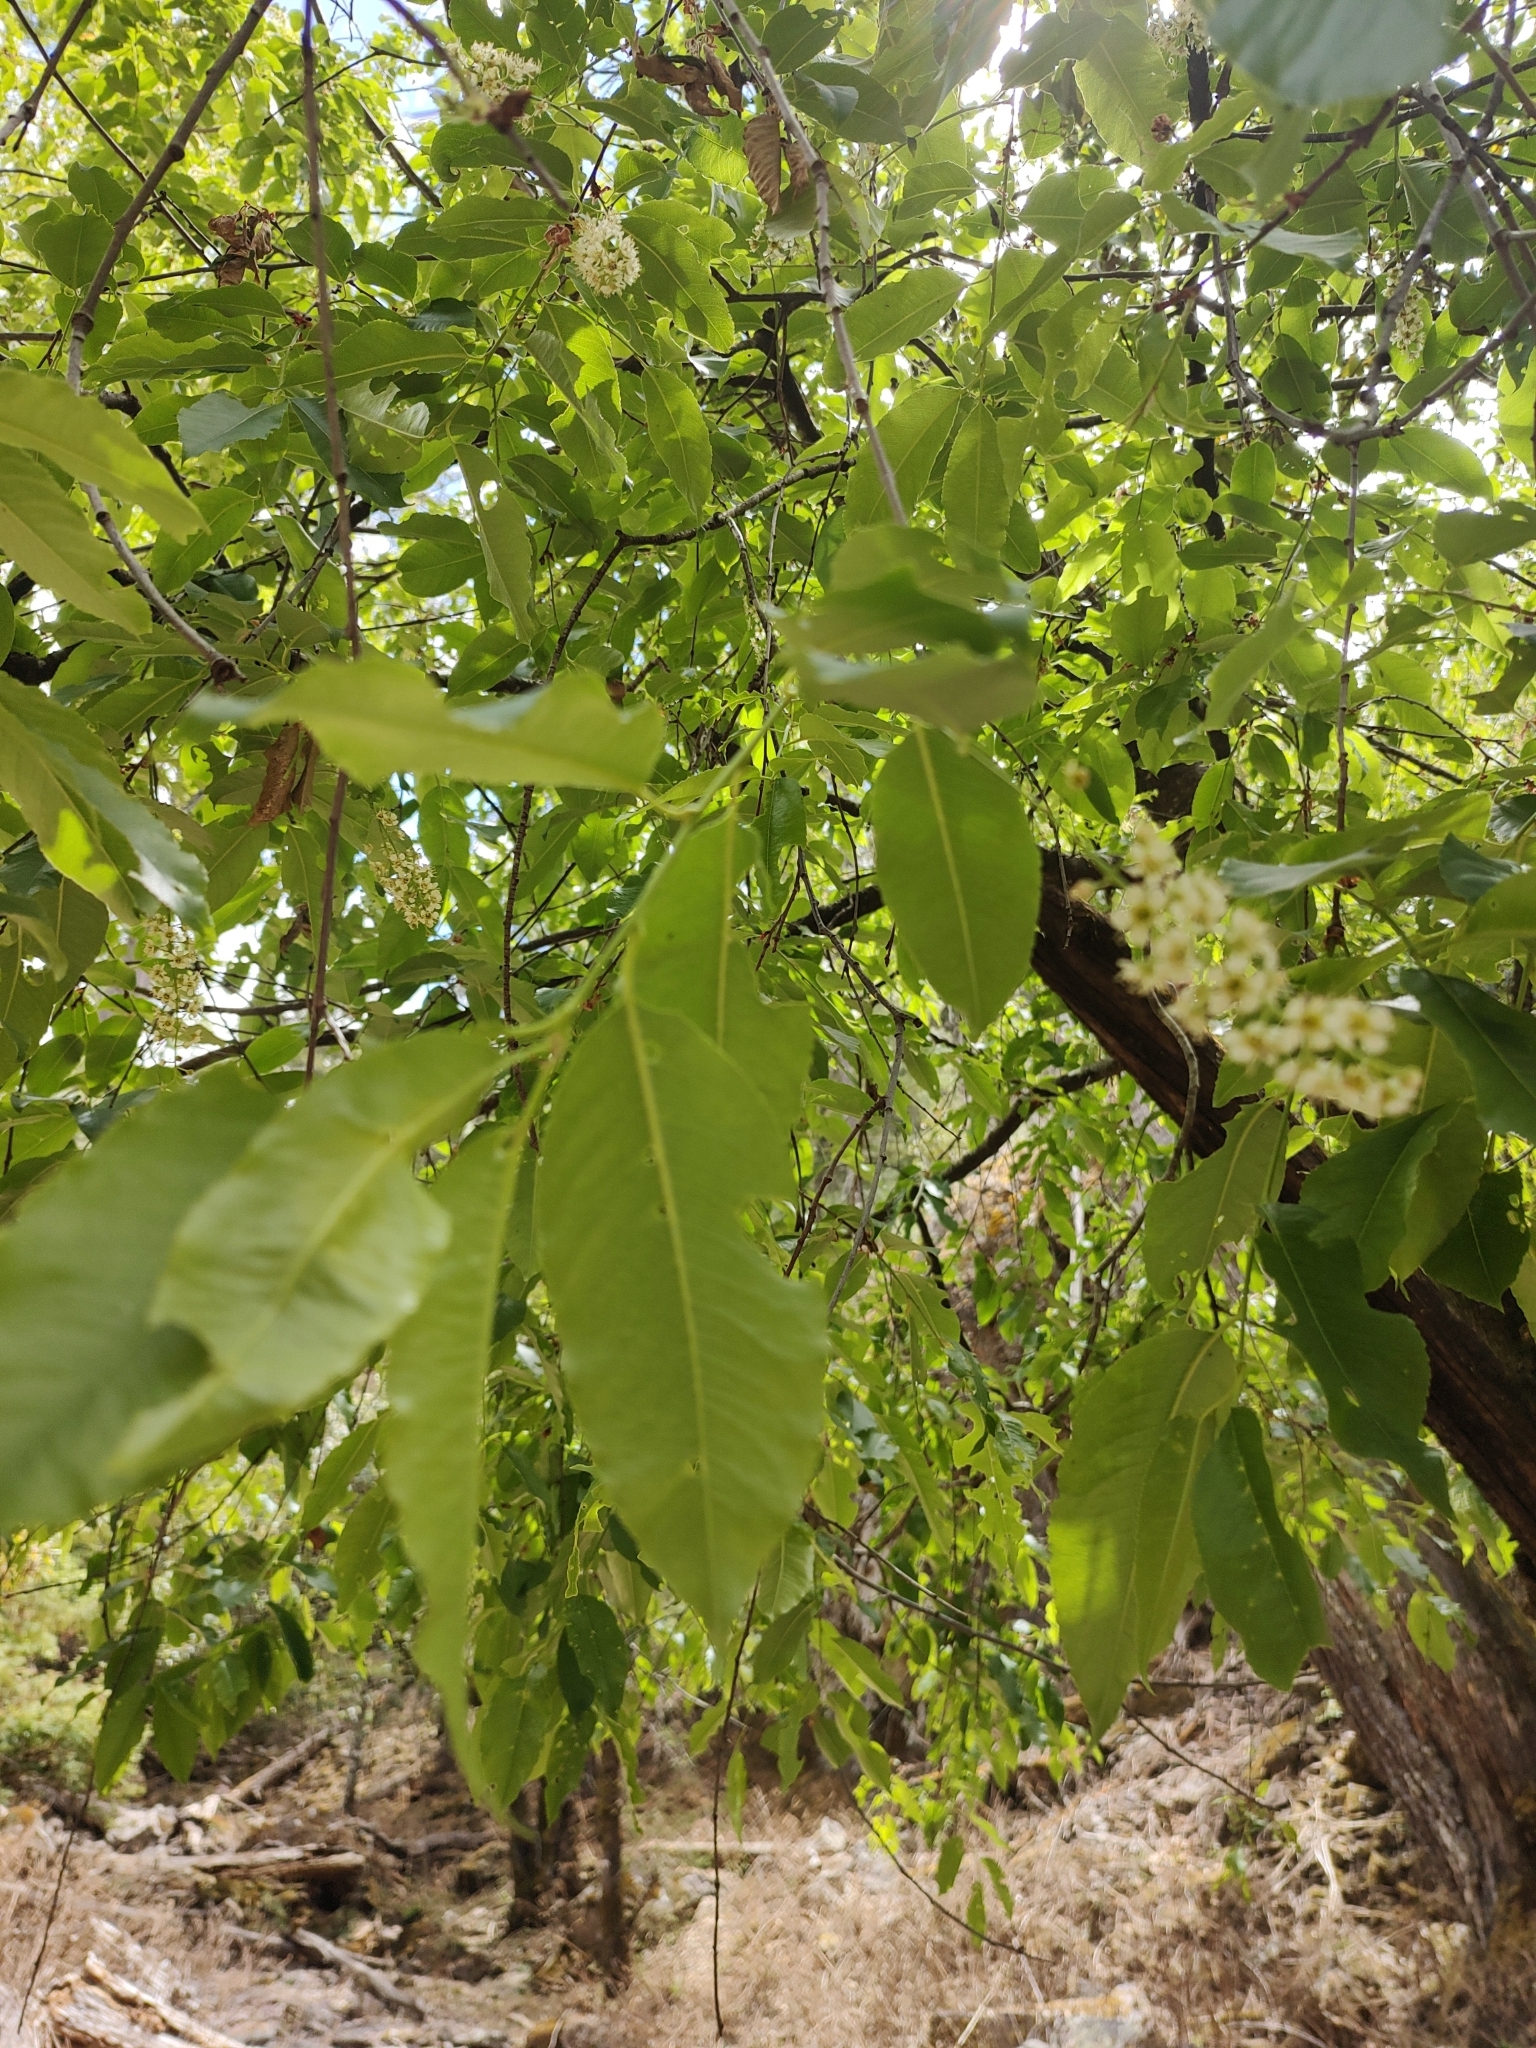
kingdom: Plantae
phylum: Tracheophyta
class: Magnoliopsida
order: Rosales
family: Rosaceae
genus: Prunus
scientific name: Prunus serotina
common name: Black cherry
